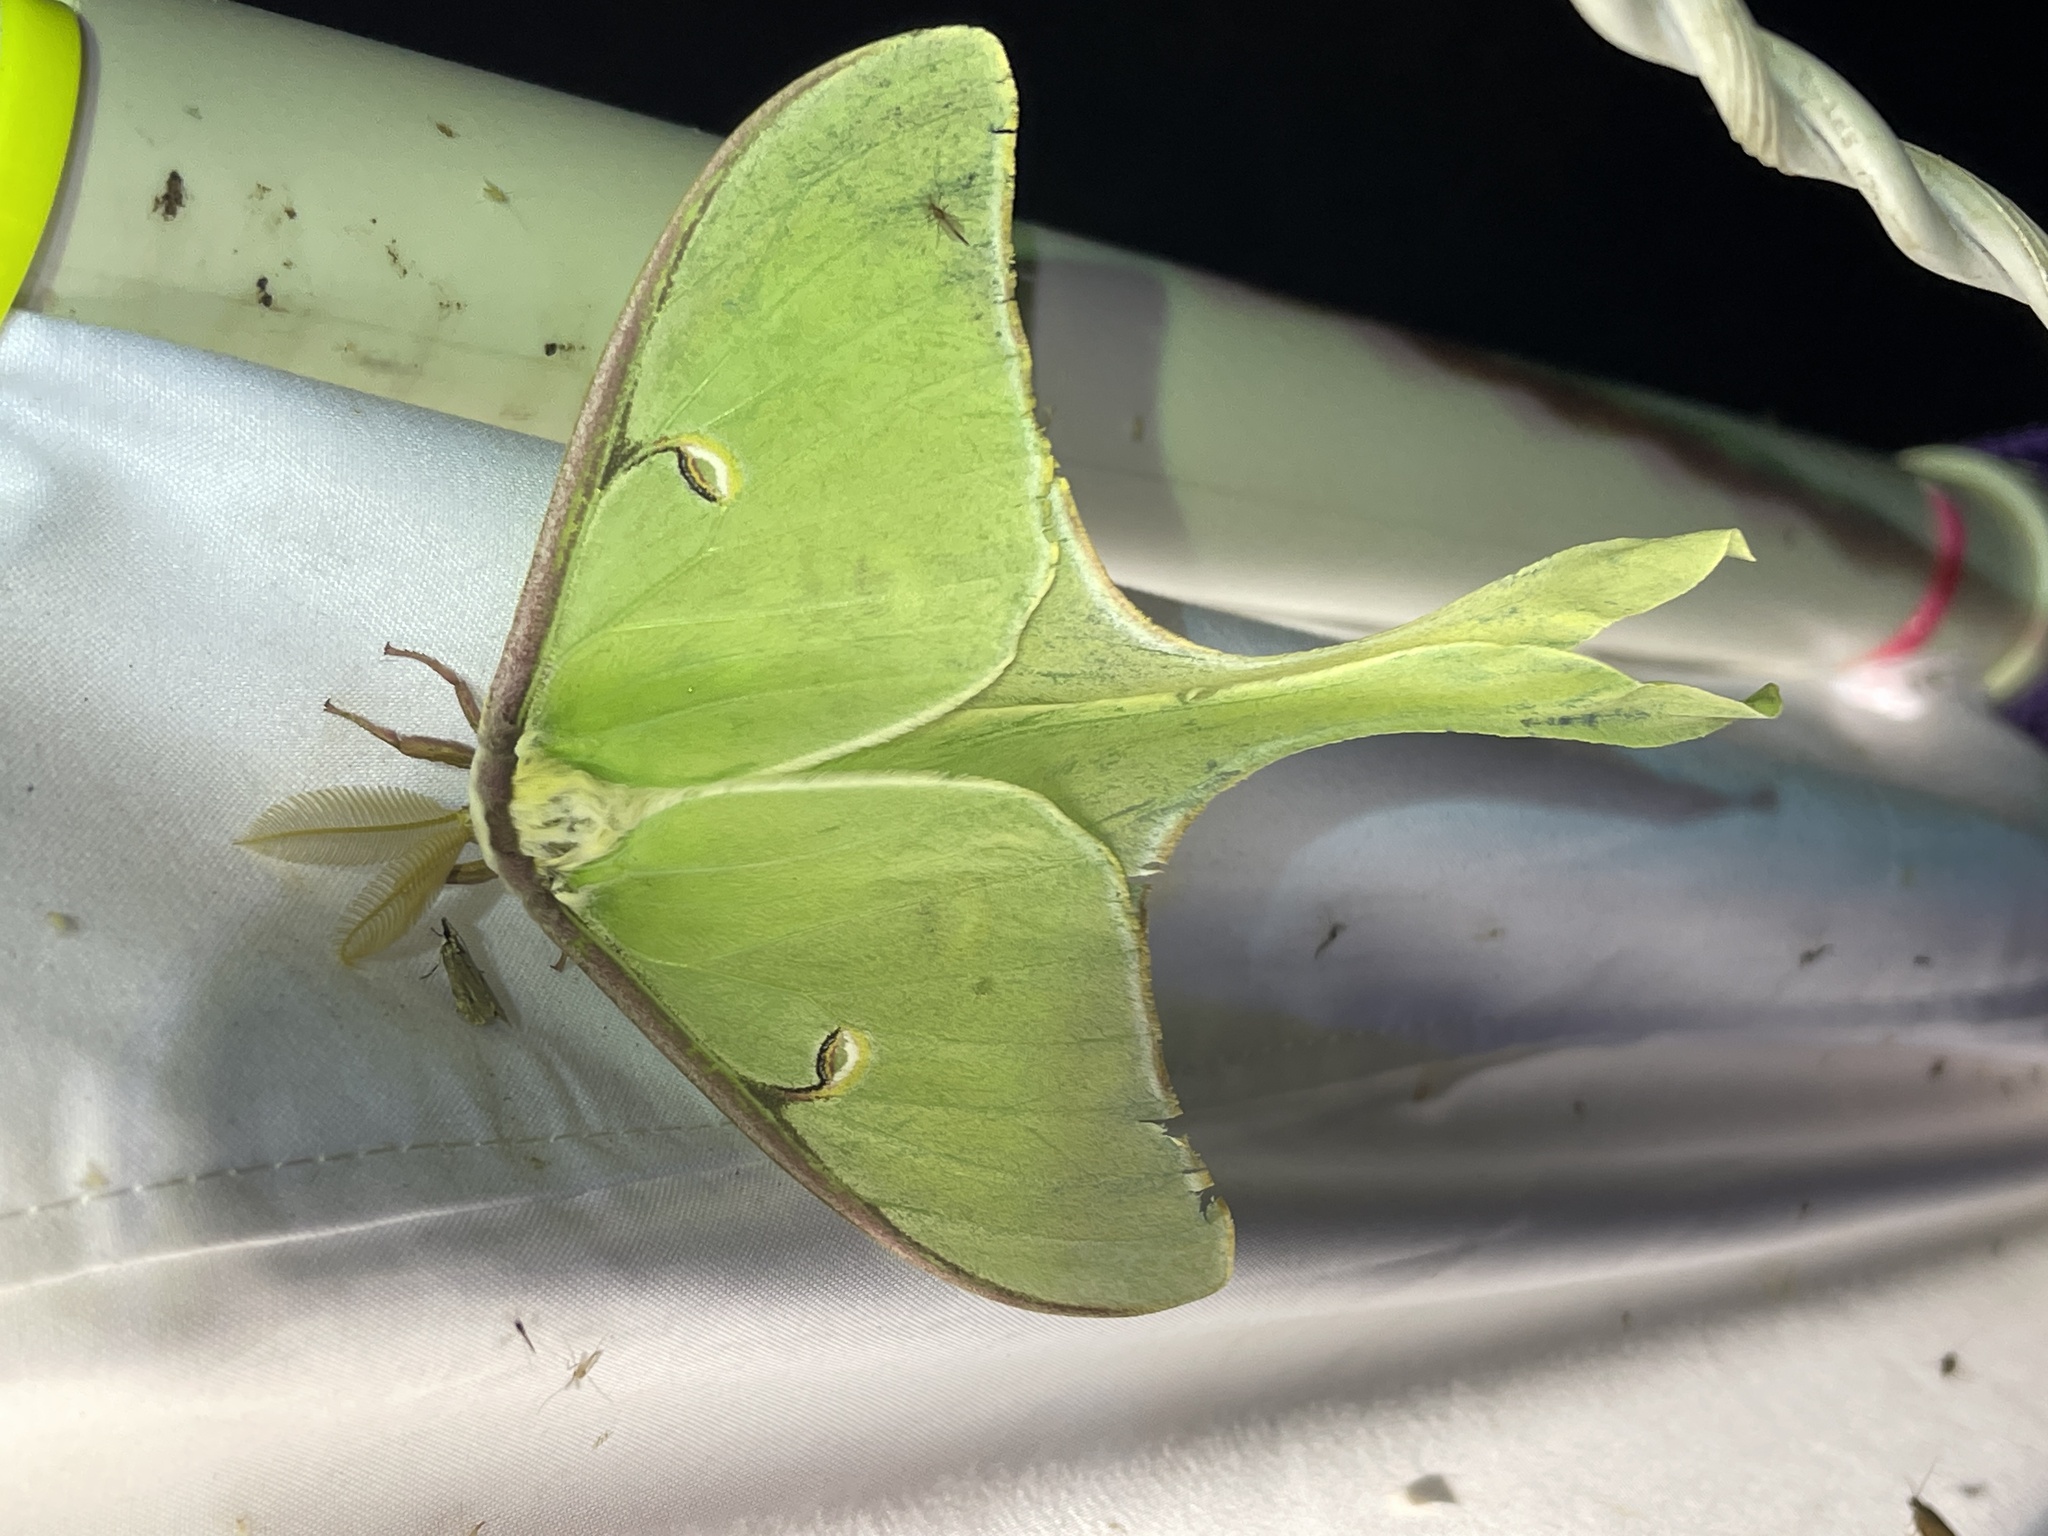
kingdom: Animalia
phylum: Arthropoda
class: Insecta
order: Lepidoptera
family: Saturniidae
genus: Actias
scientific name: Actias luna
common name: Luna moth
